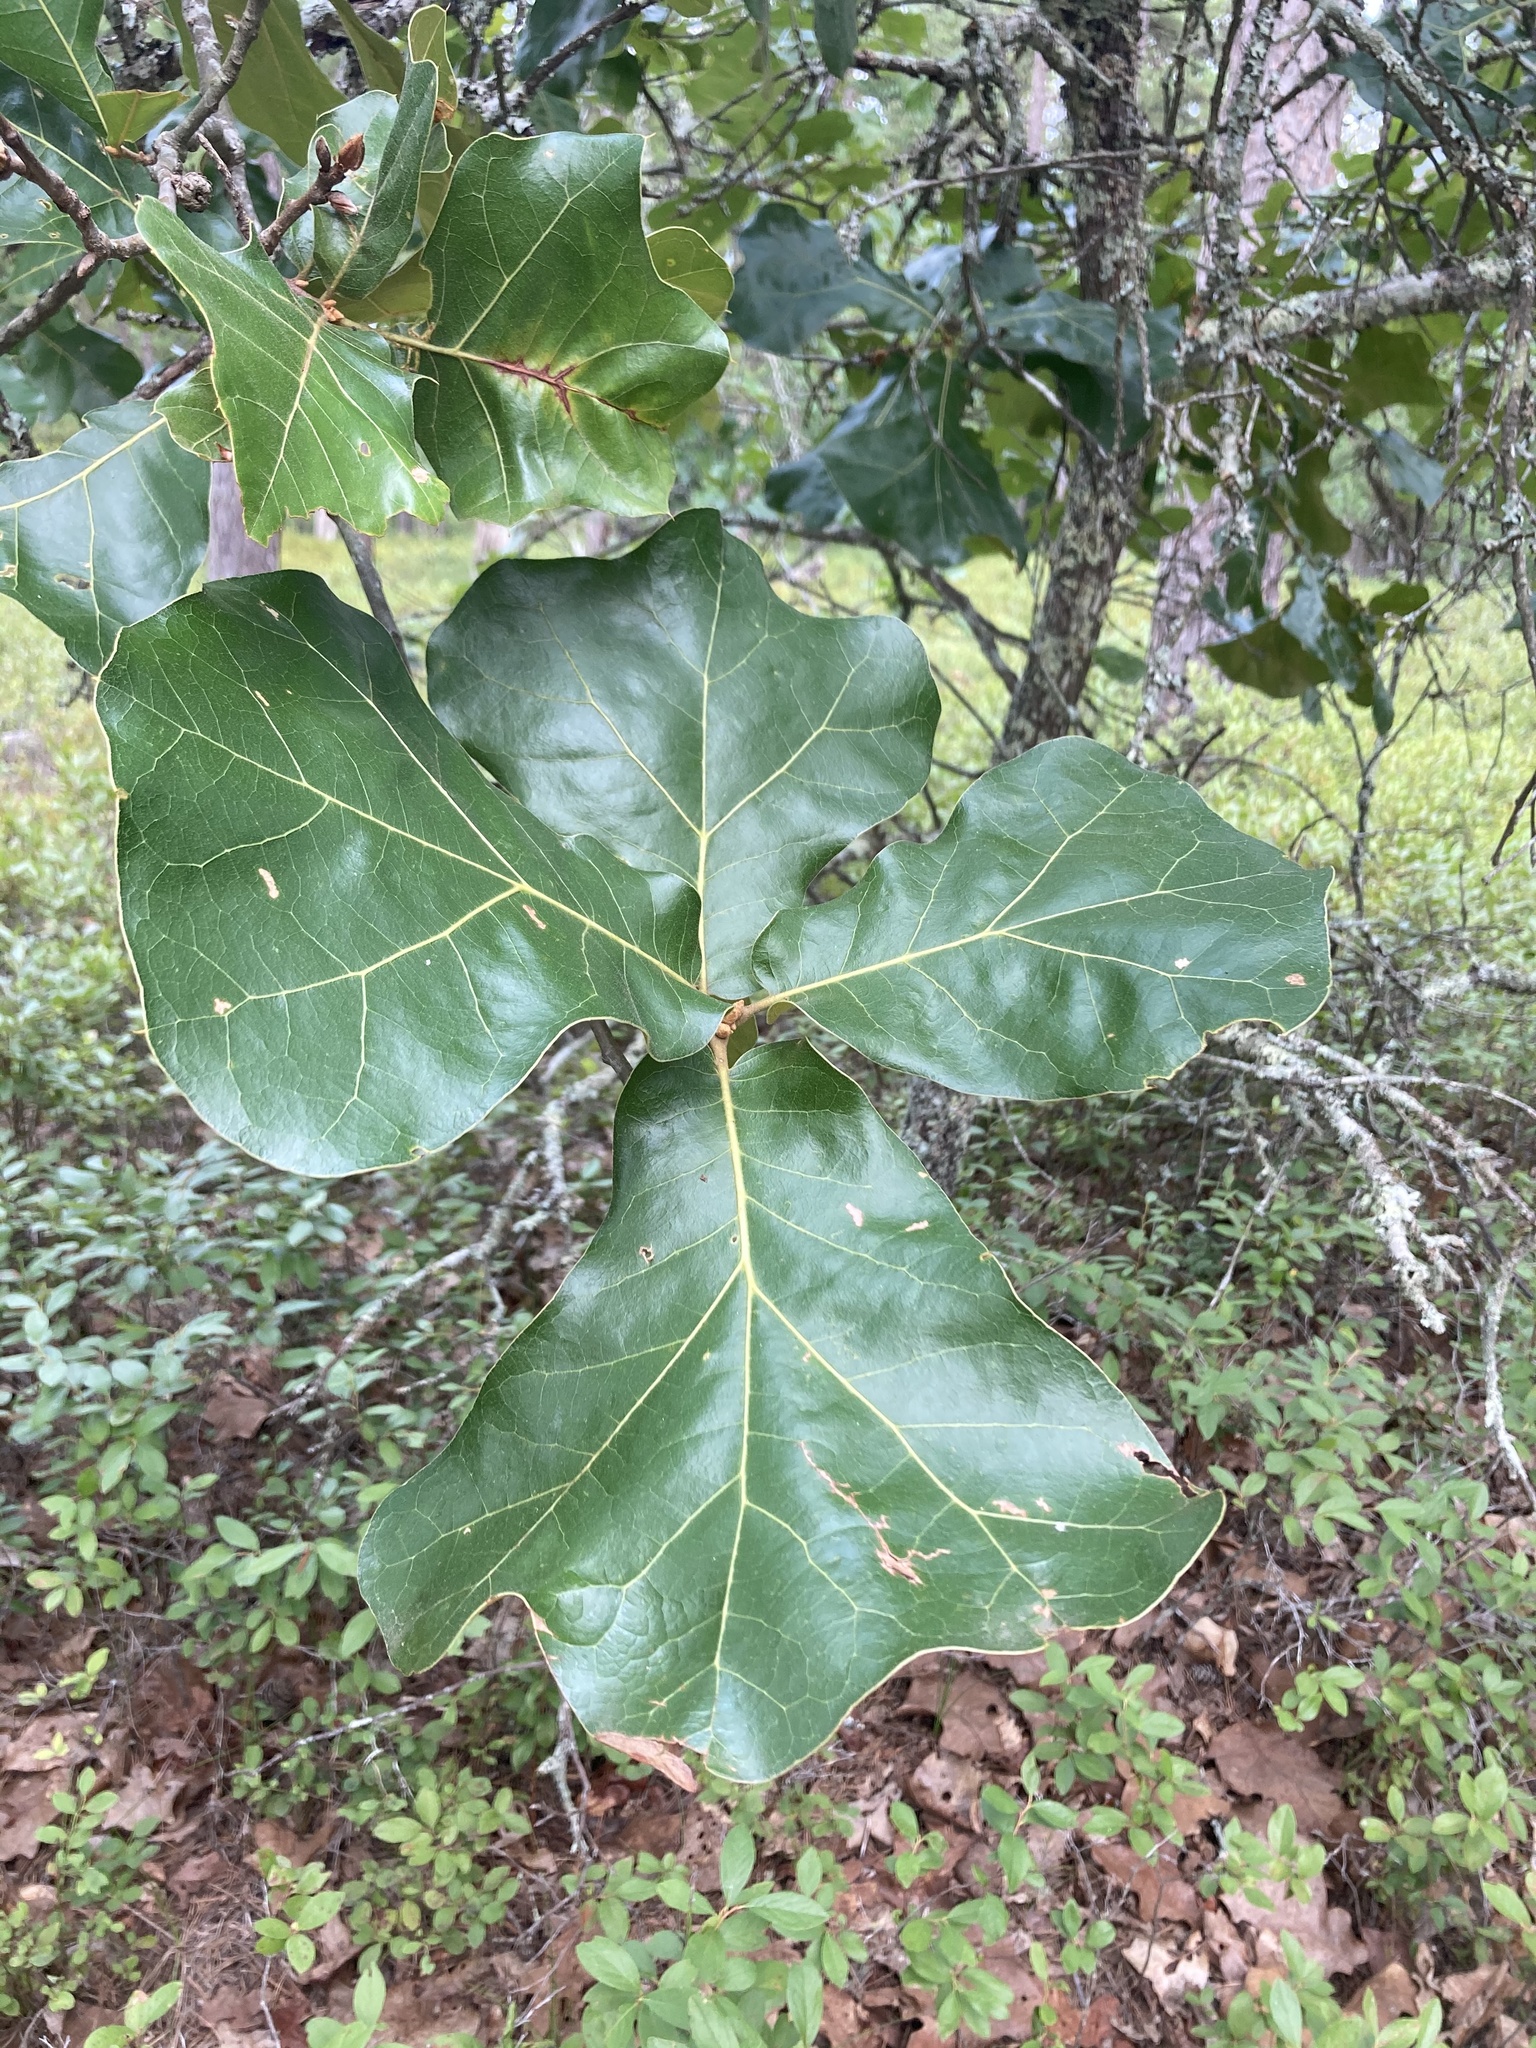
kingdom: Plantae
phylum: Tracheophyta
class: Magnoliopsida
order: Fagales
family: Fagaceae
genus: Quercus
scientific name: Quercus marilandica
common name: Blackjack oak
